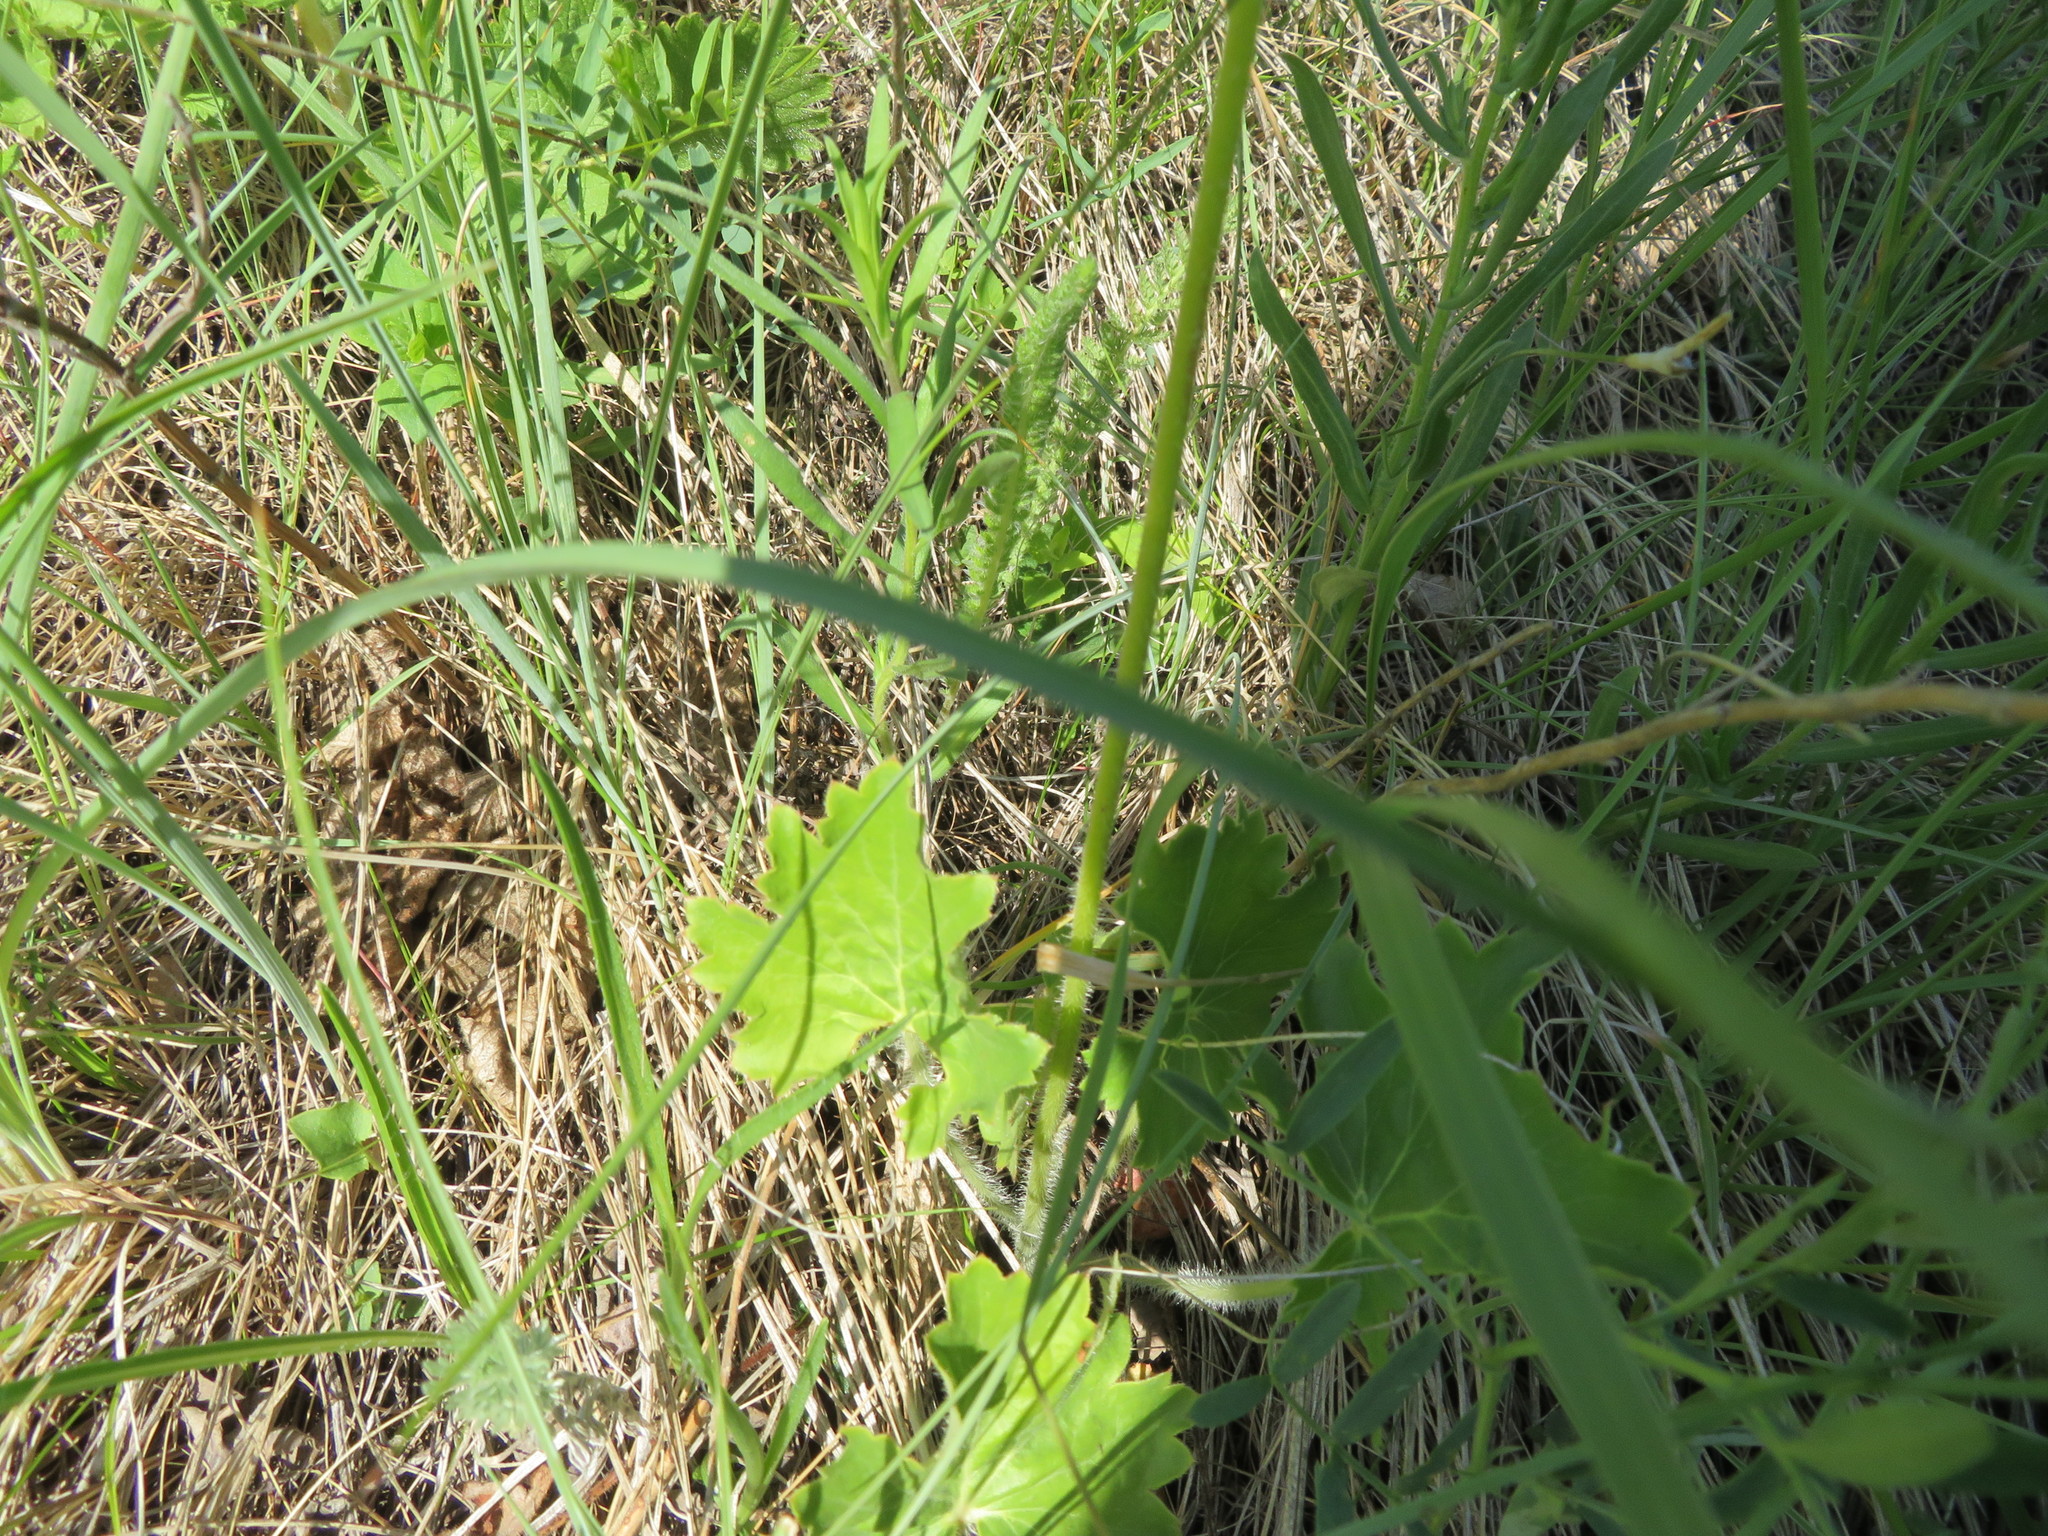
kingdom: Plantae
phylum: Tracheophyta
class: Magnoliopsida
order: Saxifragales
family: Saxifragaceae
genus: Heuchera
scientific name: Heuchera richardsonii
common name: Richardson's alumroot
